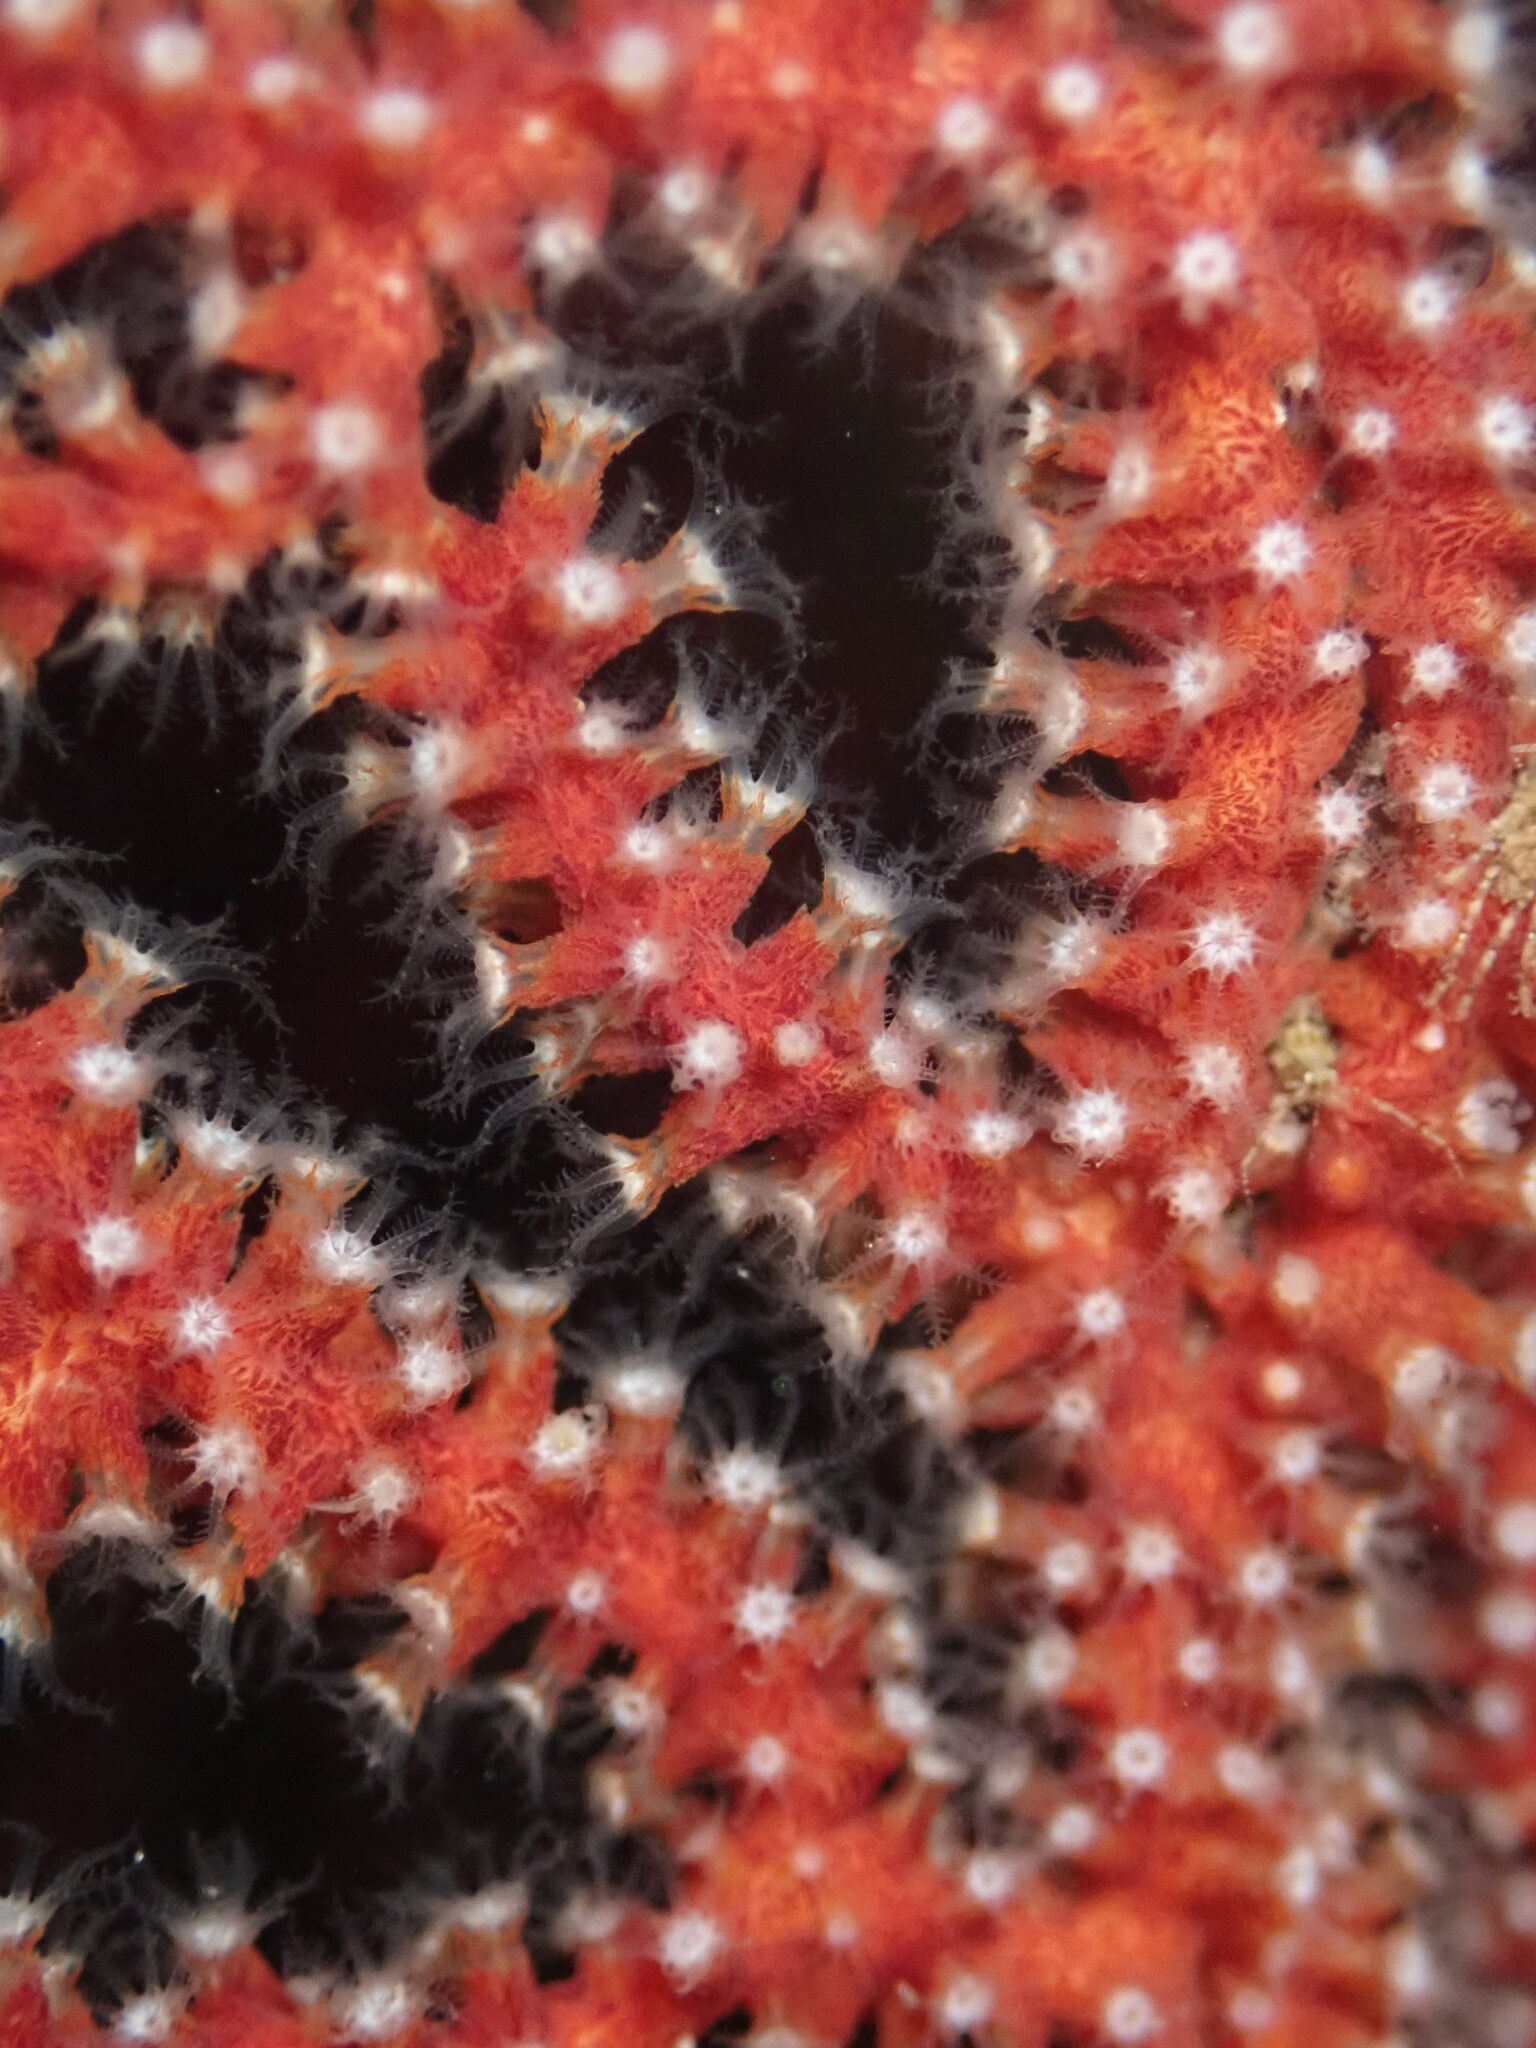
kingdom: Animalia
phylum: Cnidaria
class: Anthozoa
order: Malacalcyonacea
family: Plexauridae
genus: Muricea
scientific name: Muricea fruticosa
